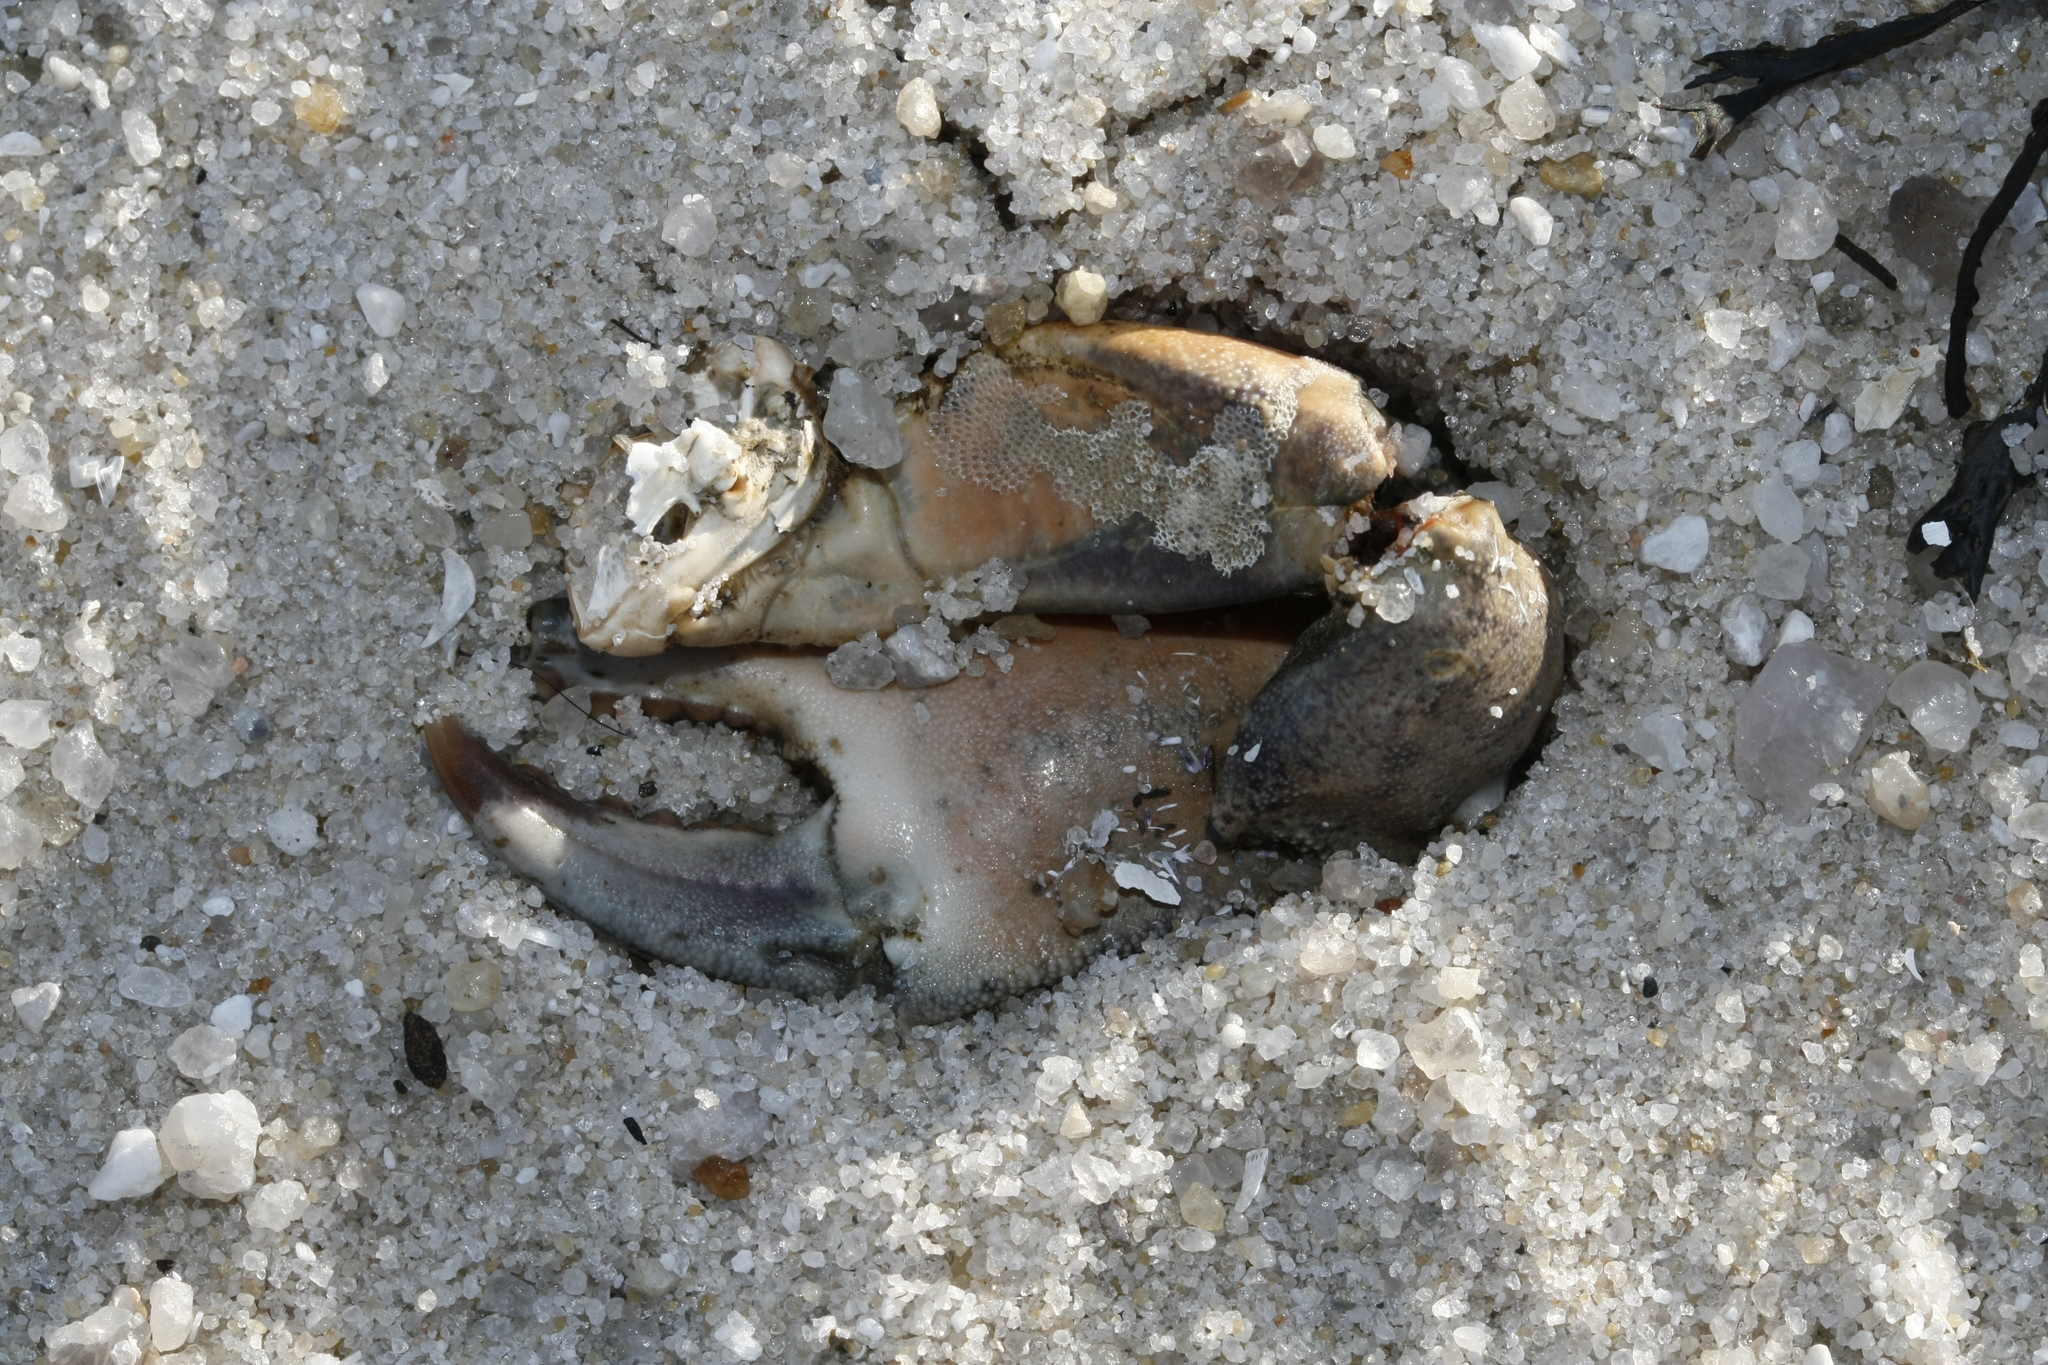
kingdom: Animalia
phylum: Arthropoda
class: Malacostraca
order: Decapoda
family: Carcinidae
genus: Carcinus
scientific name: Carcinus maenas
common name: European green crab
